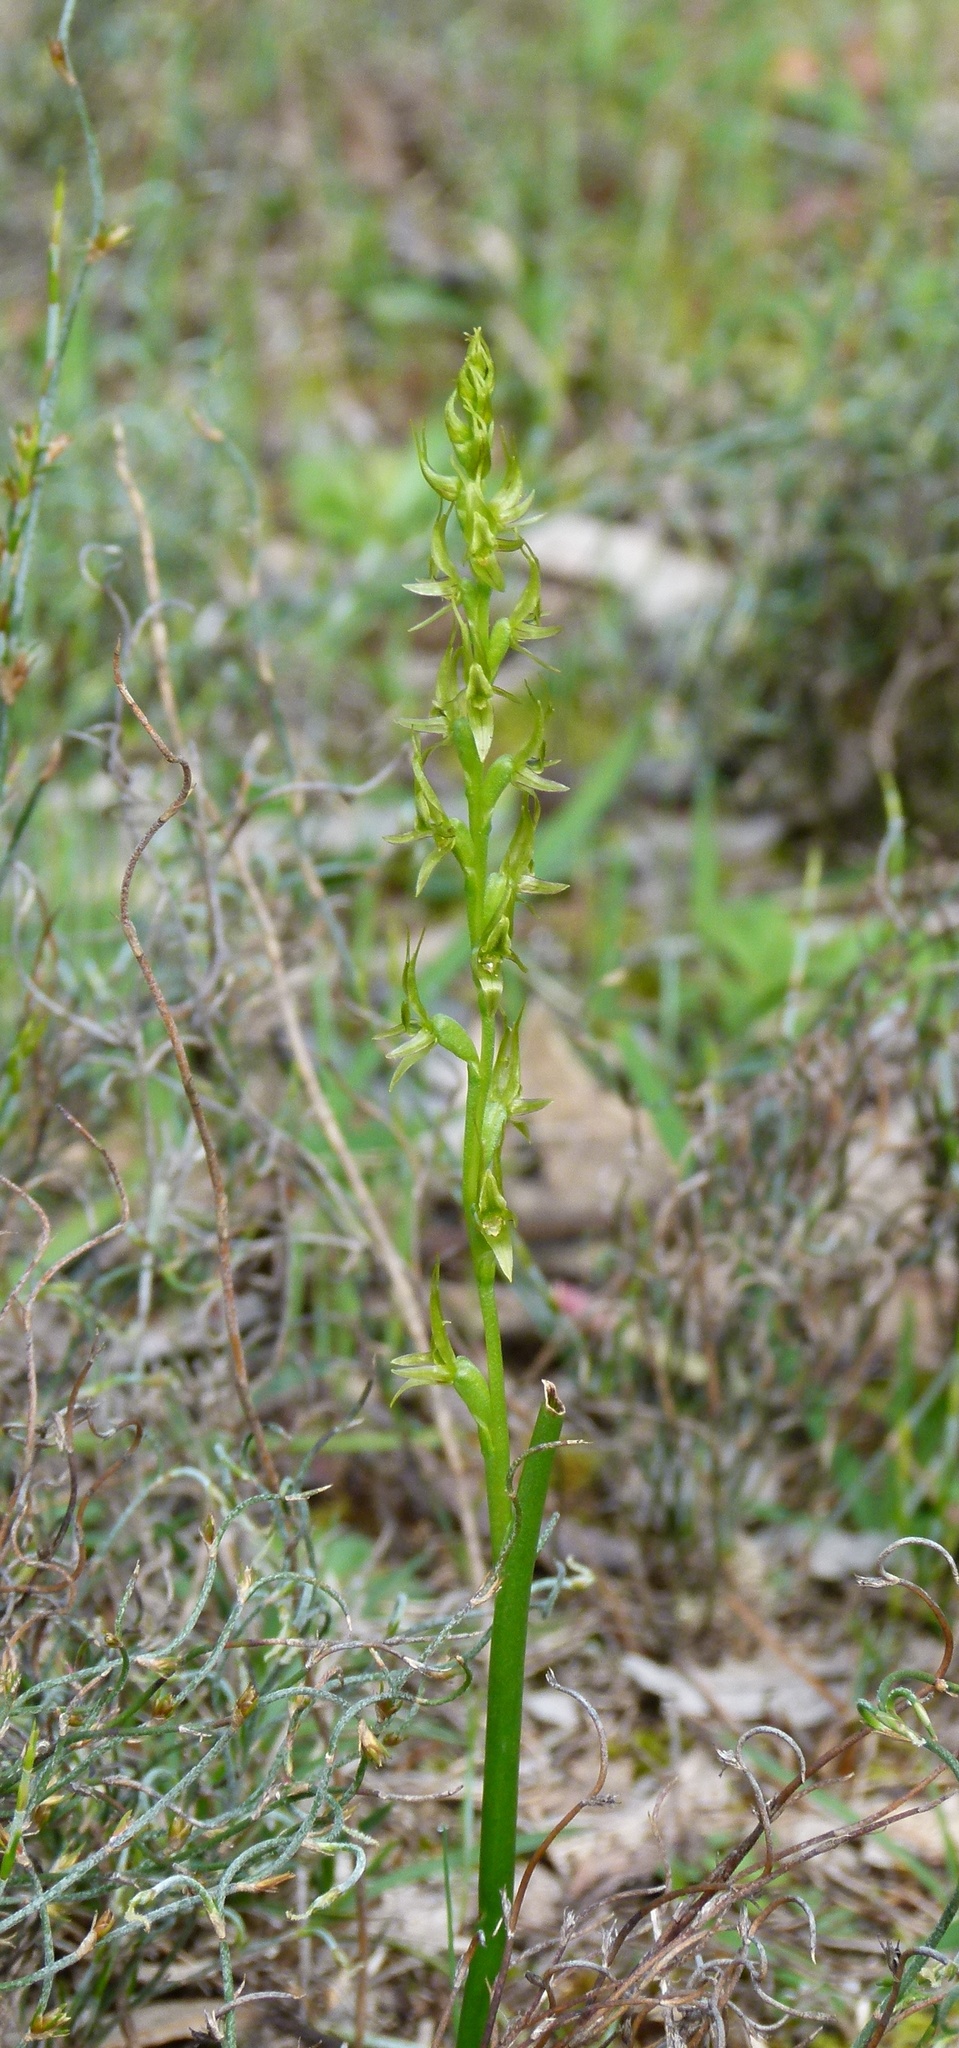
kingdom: Plantae
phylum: Tracheophyta
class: Liliopsida
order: Asparagales
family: Orchidaceae
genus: Prasophyllum
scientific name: Prasophyllum gracile
